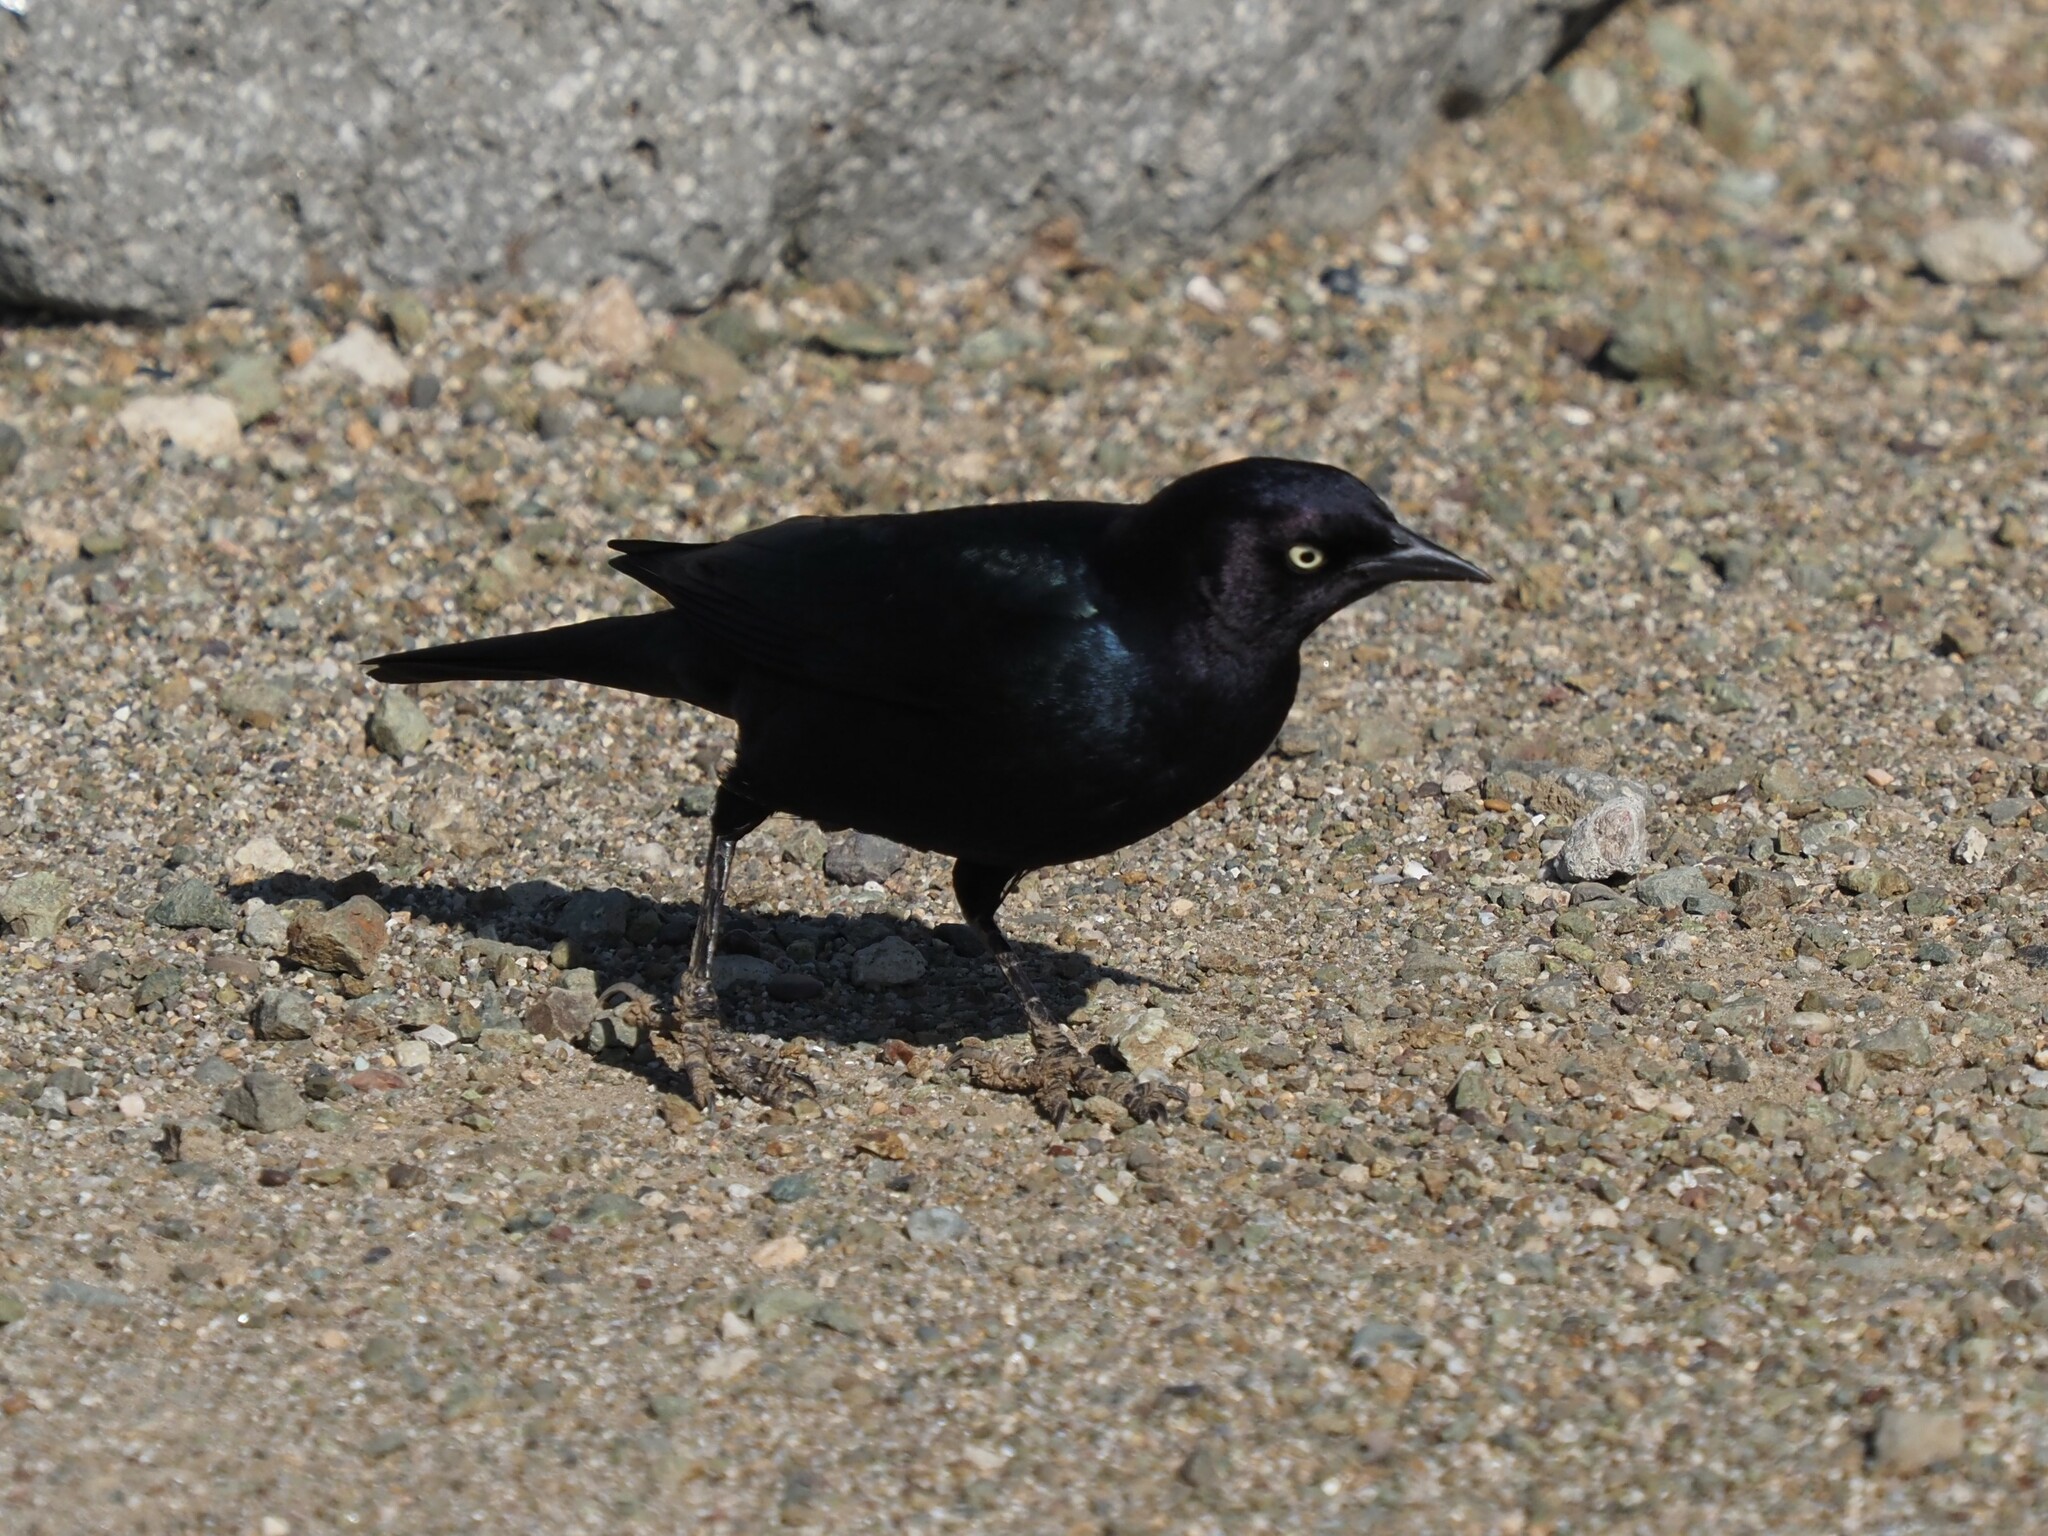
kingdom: Animalia
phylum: Chordata
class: Aves
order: Passeriformes
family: Icteridae
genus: Euphagus
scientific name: Euphagus cyanocephalus
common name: Brewer's blackbird
